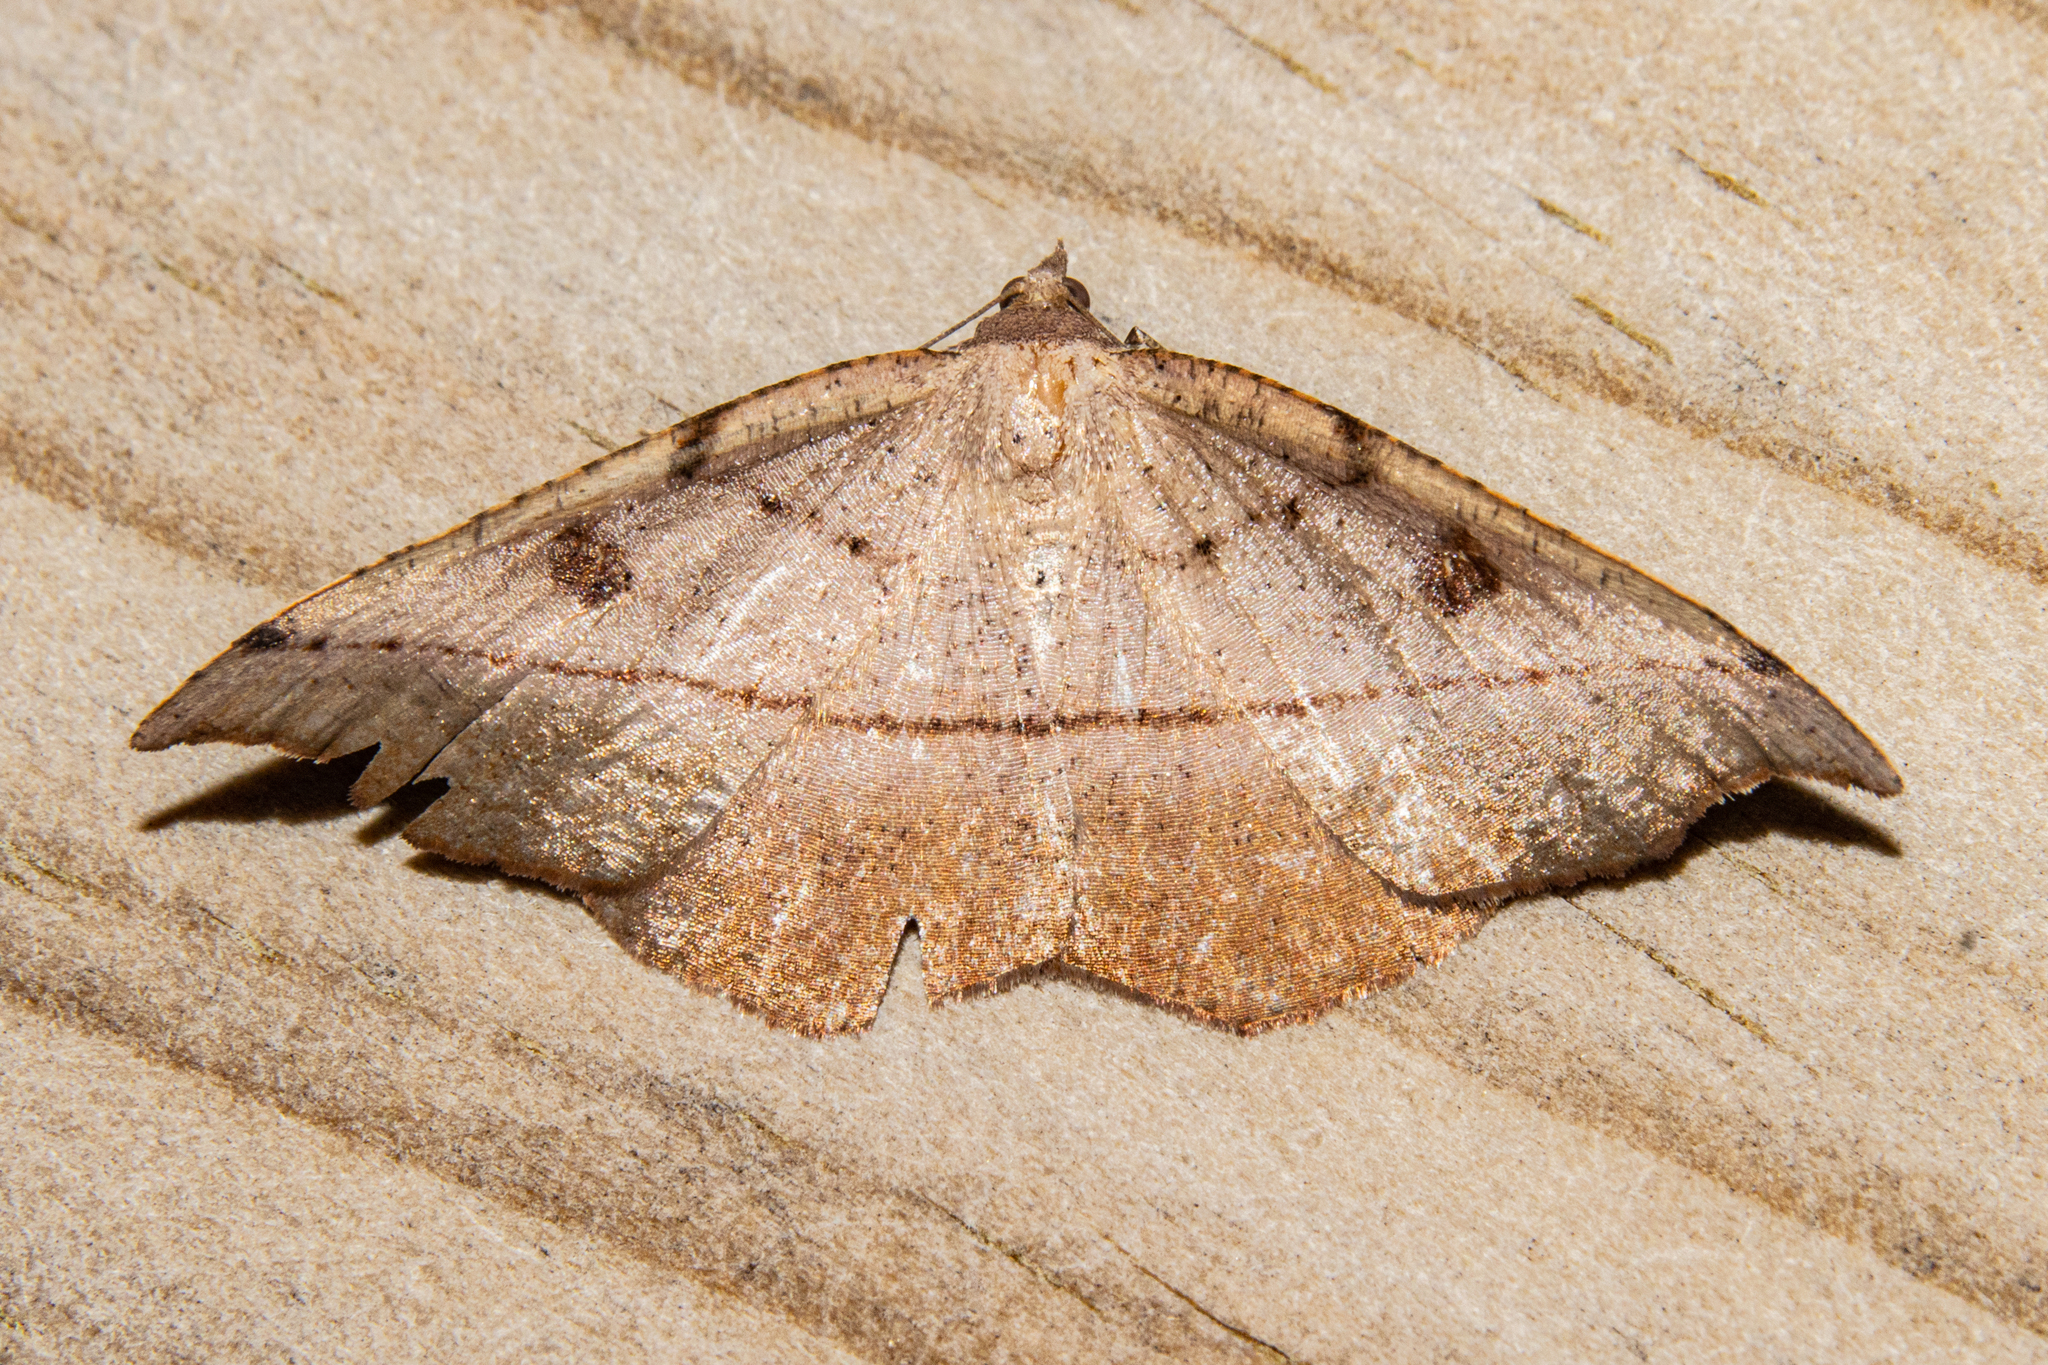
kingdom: Animalia
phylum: Arthropoda
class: Insecta
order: Lepidoptera
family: Geometridae
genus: Sarisa
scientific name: Sarisa muriferata
